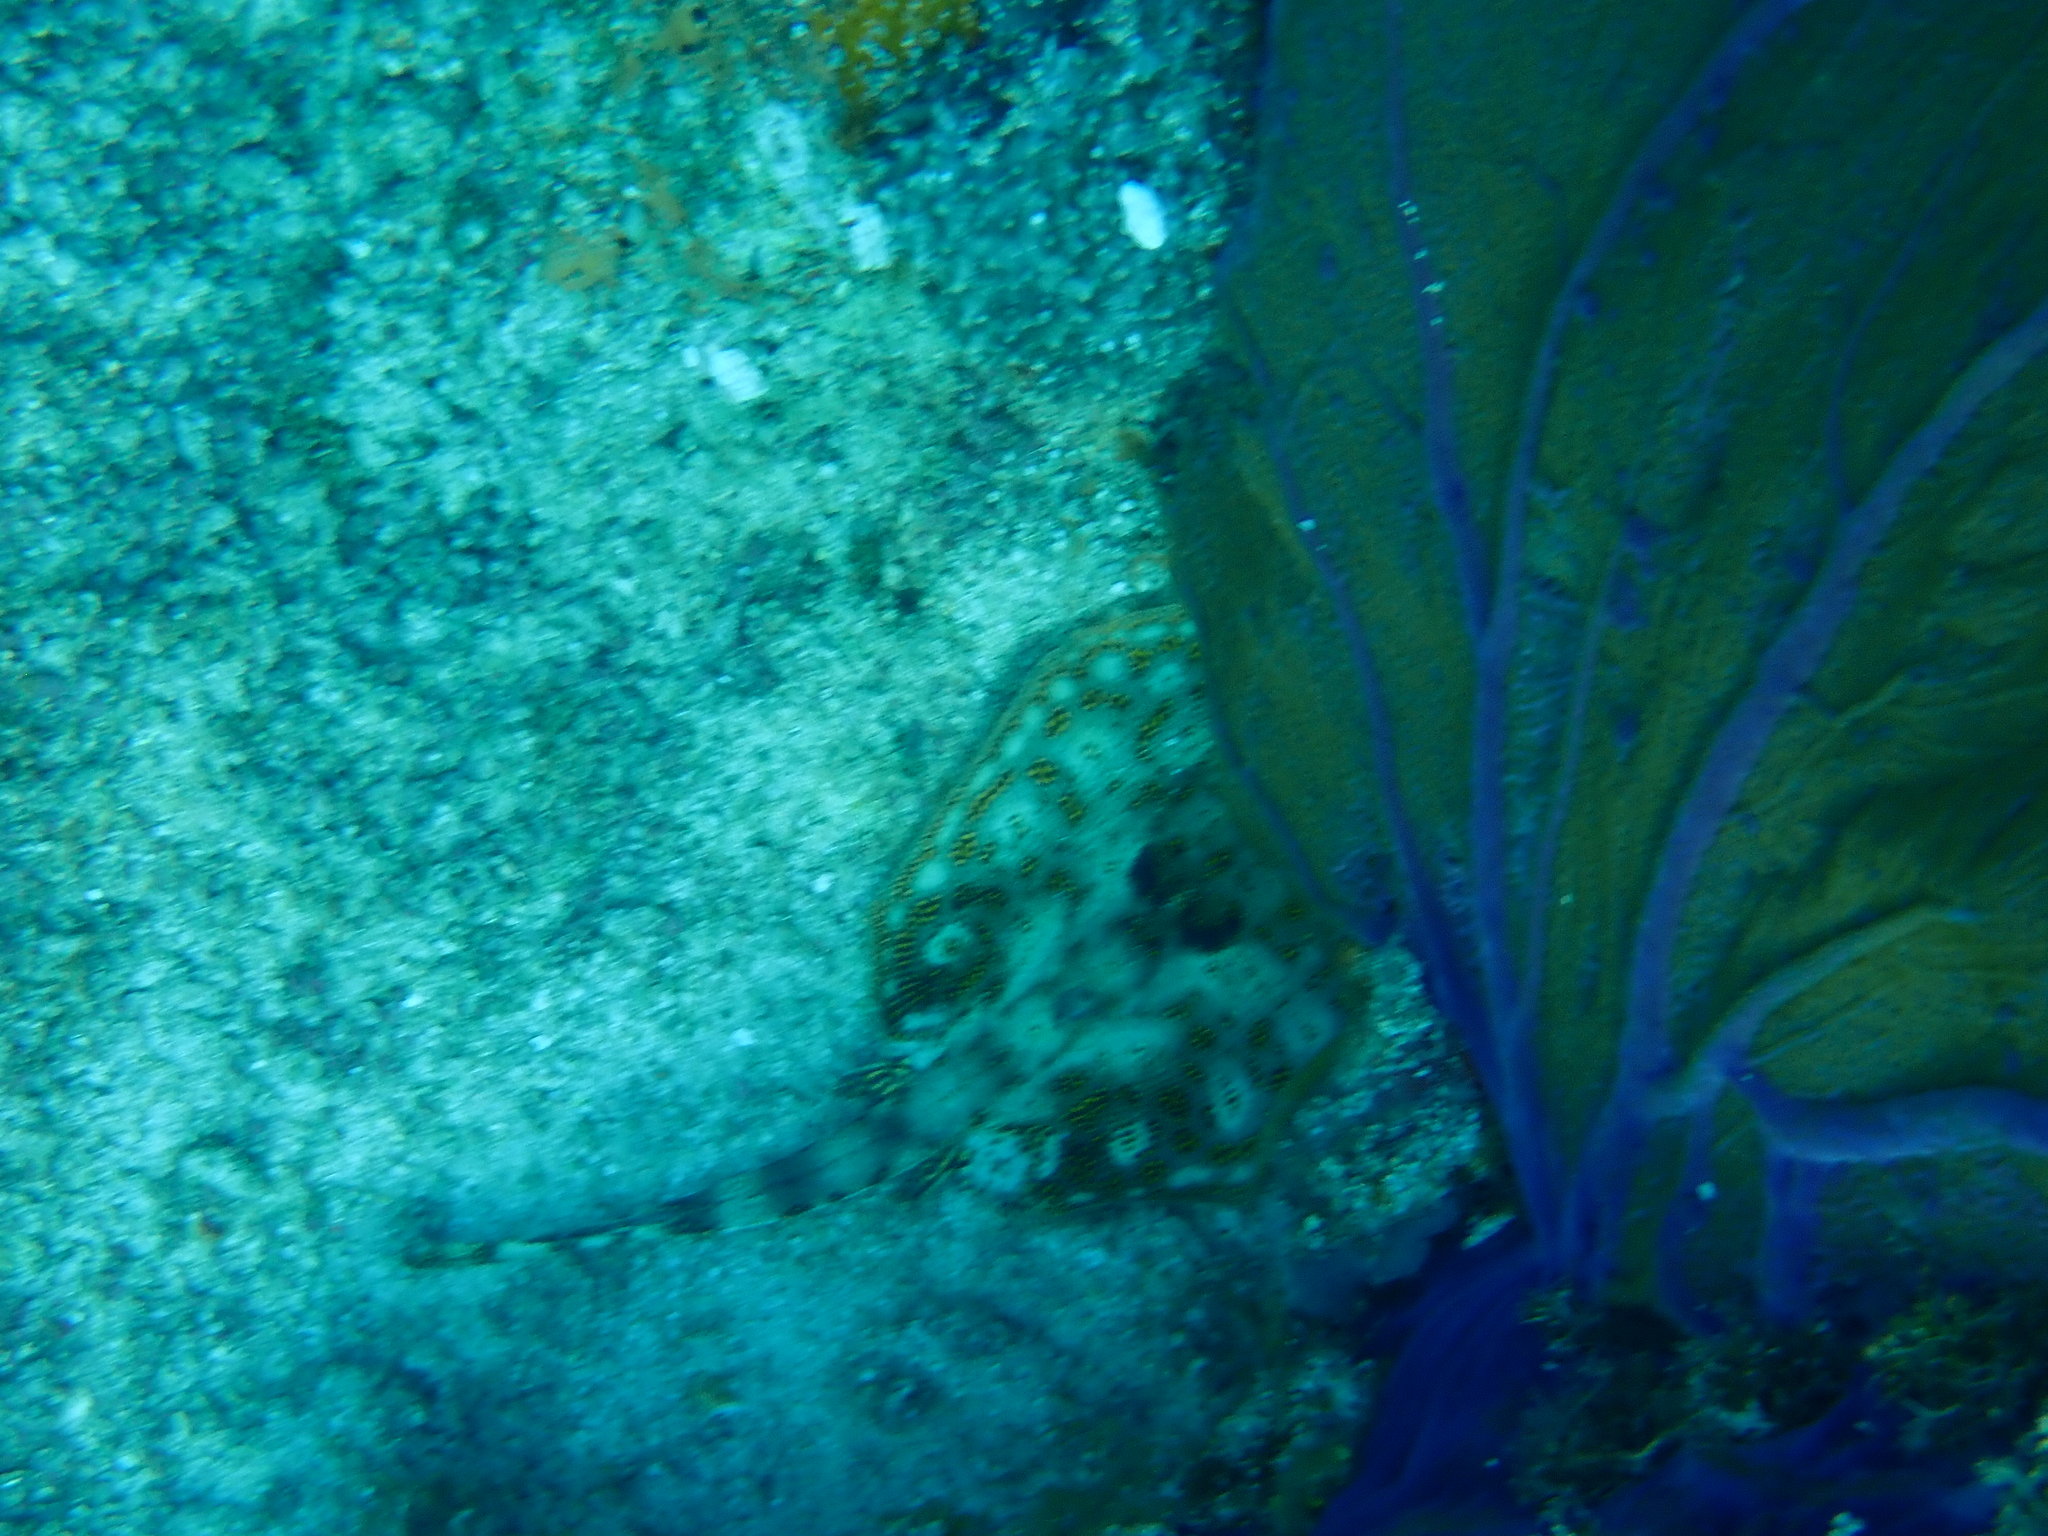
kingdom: Animalia
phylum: Chordata
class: Elasmobranchii
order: Myliobatiformes
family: Urotrygonidae
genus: Urobatis
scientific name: Urobatis jamaicensis
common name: Yellow stingray
